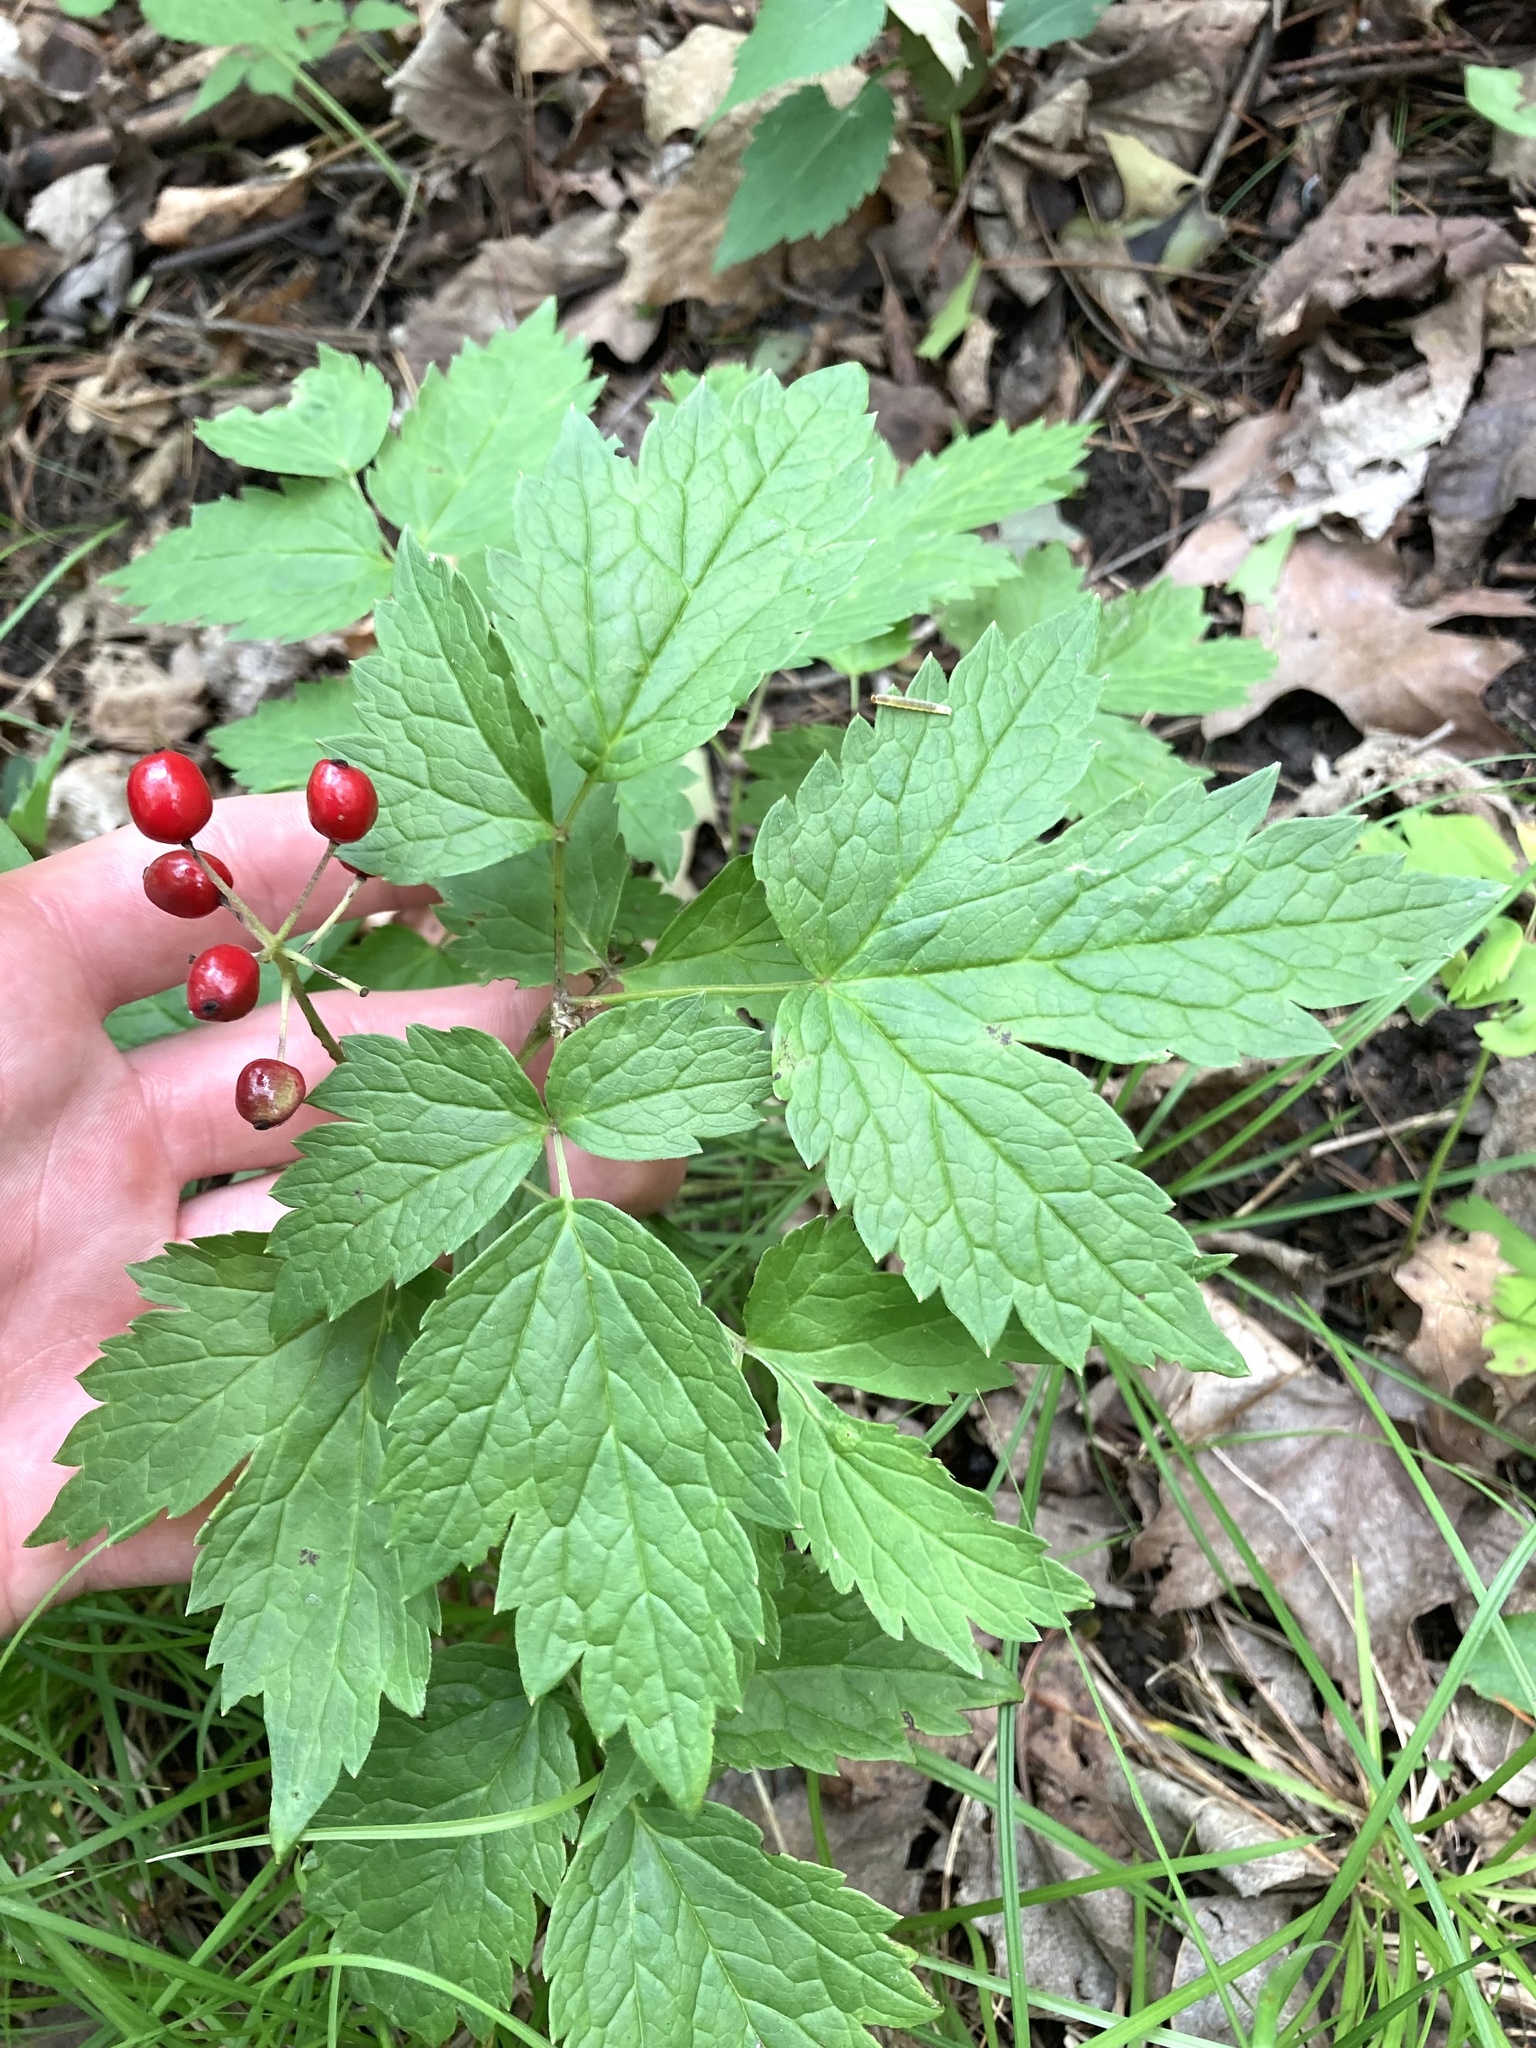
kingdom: Plantae
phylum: Tracheophyta
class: Magnoliopsida
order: Ranunculales
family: Ranunculaceae
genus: Actaea
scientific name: Actaea rubra
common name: Red baneberry
